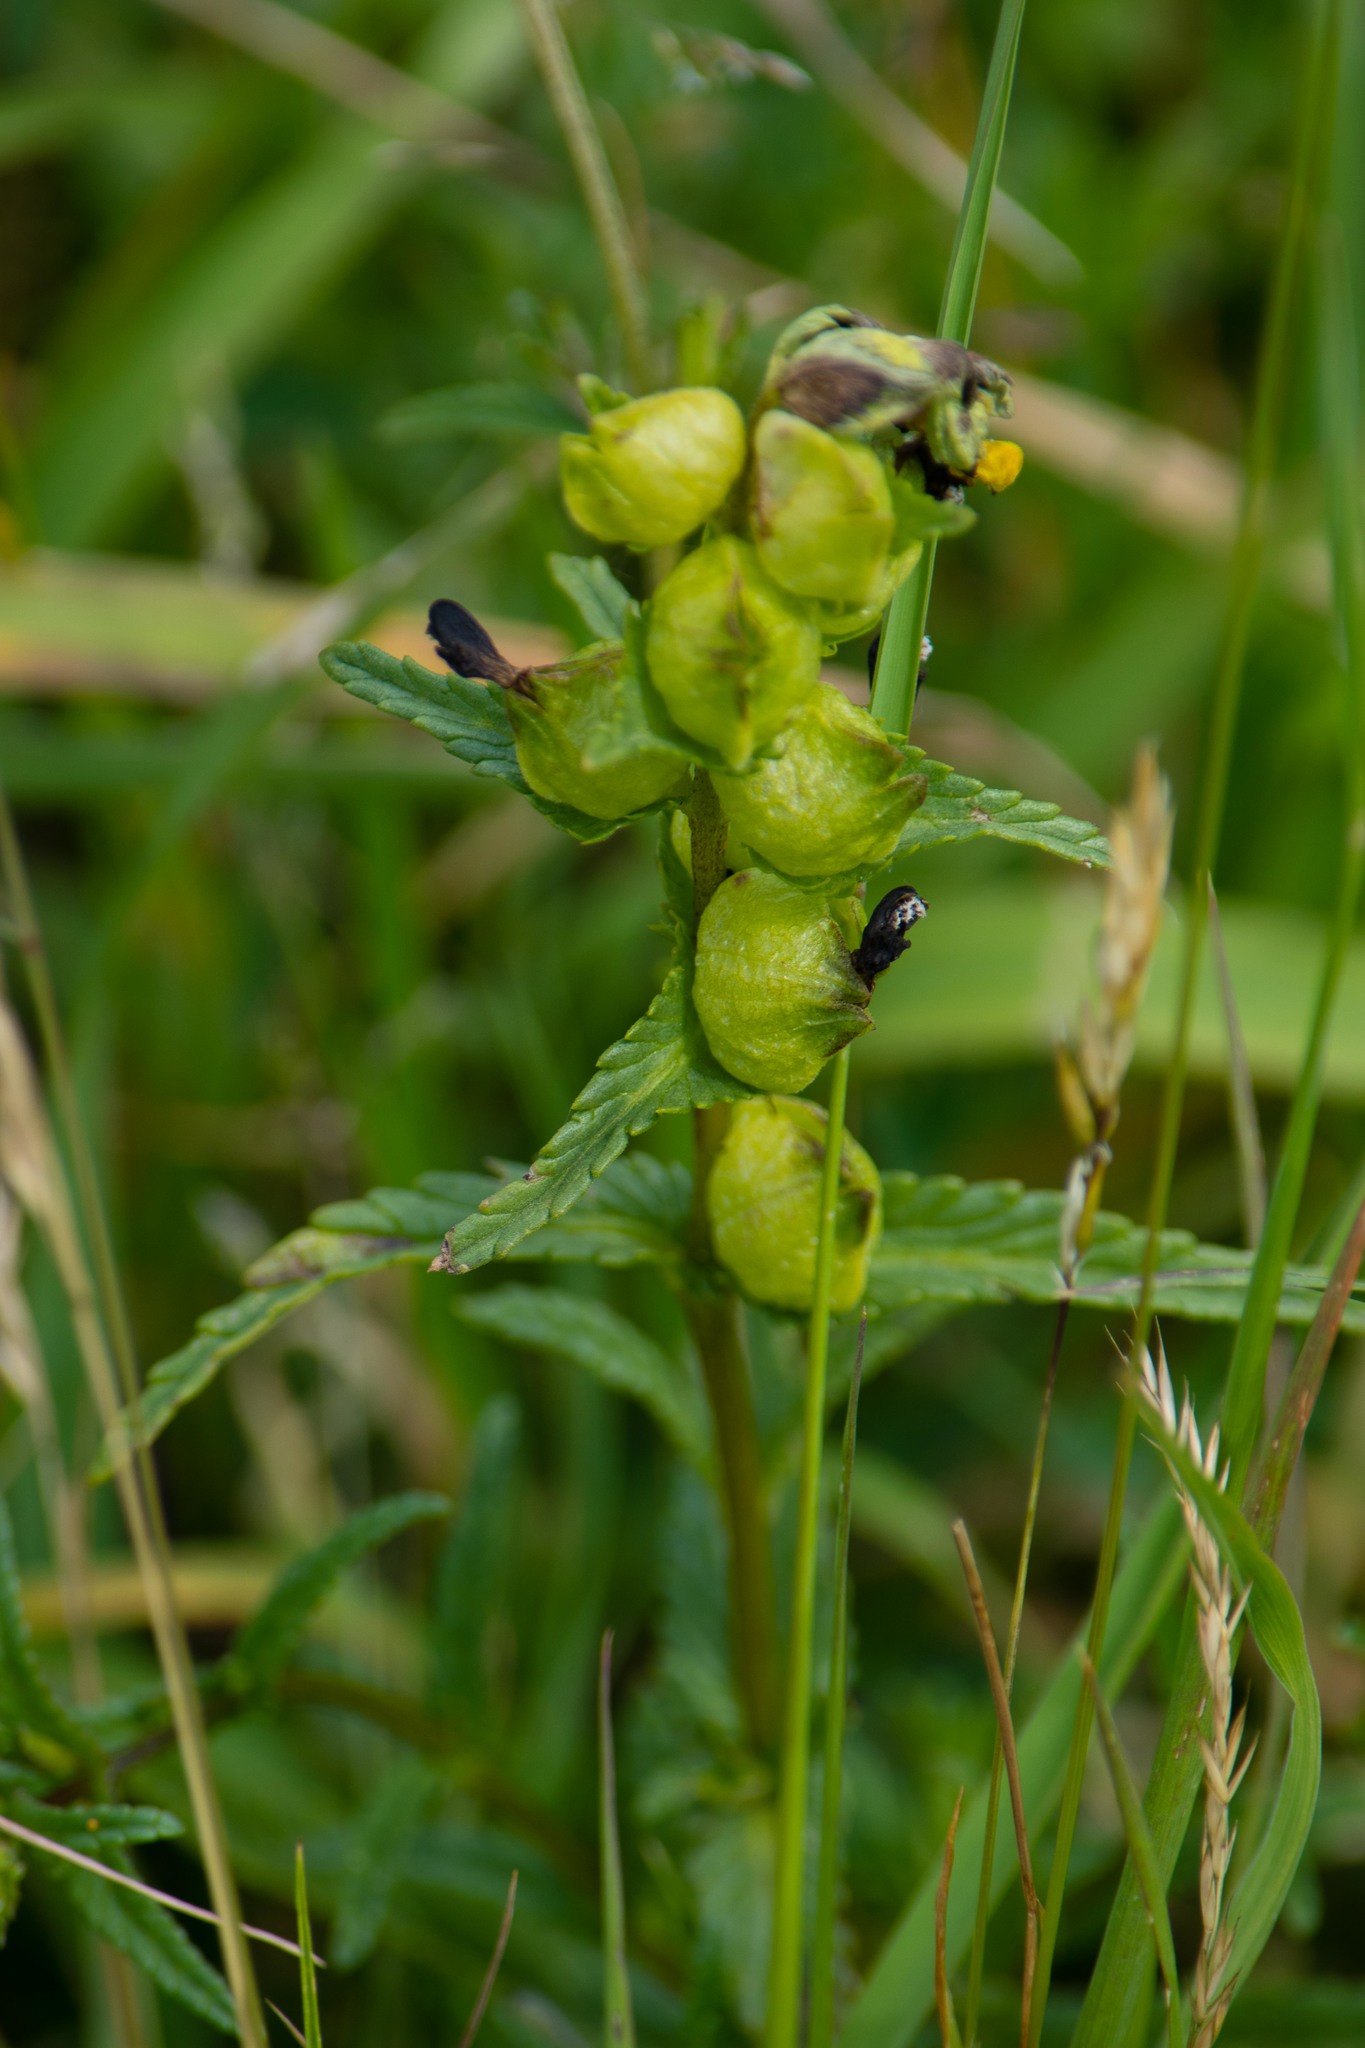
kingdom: Plantae
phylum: Tracheophyta
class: Magnoliopsida
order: Lamiales
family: Orobanchaceae
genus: Rhinanthus
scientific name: Rhinanthus minor
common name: Yellow-rattle
